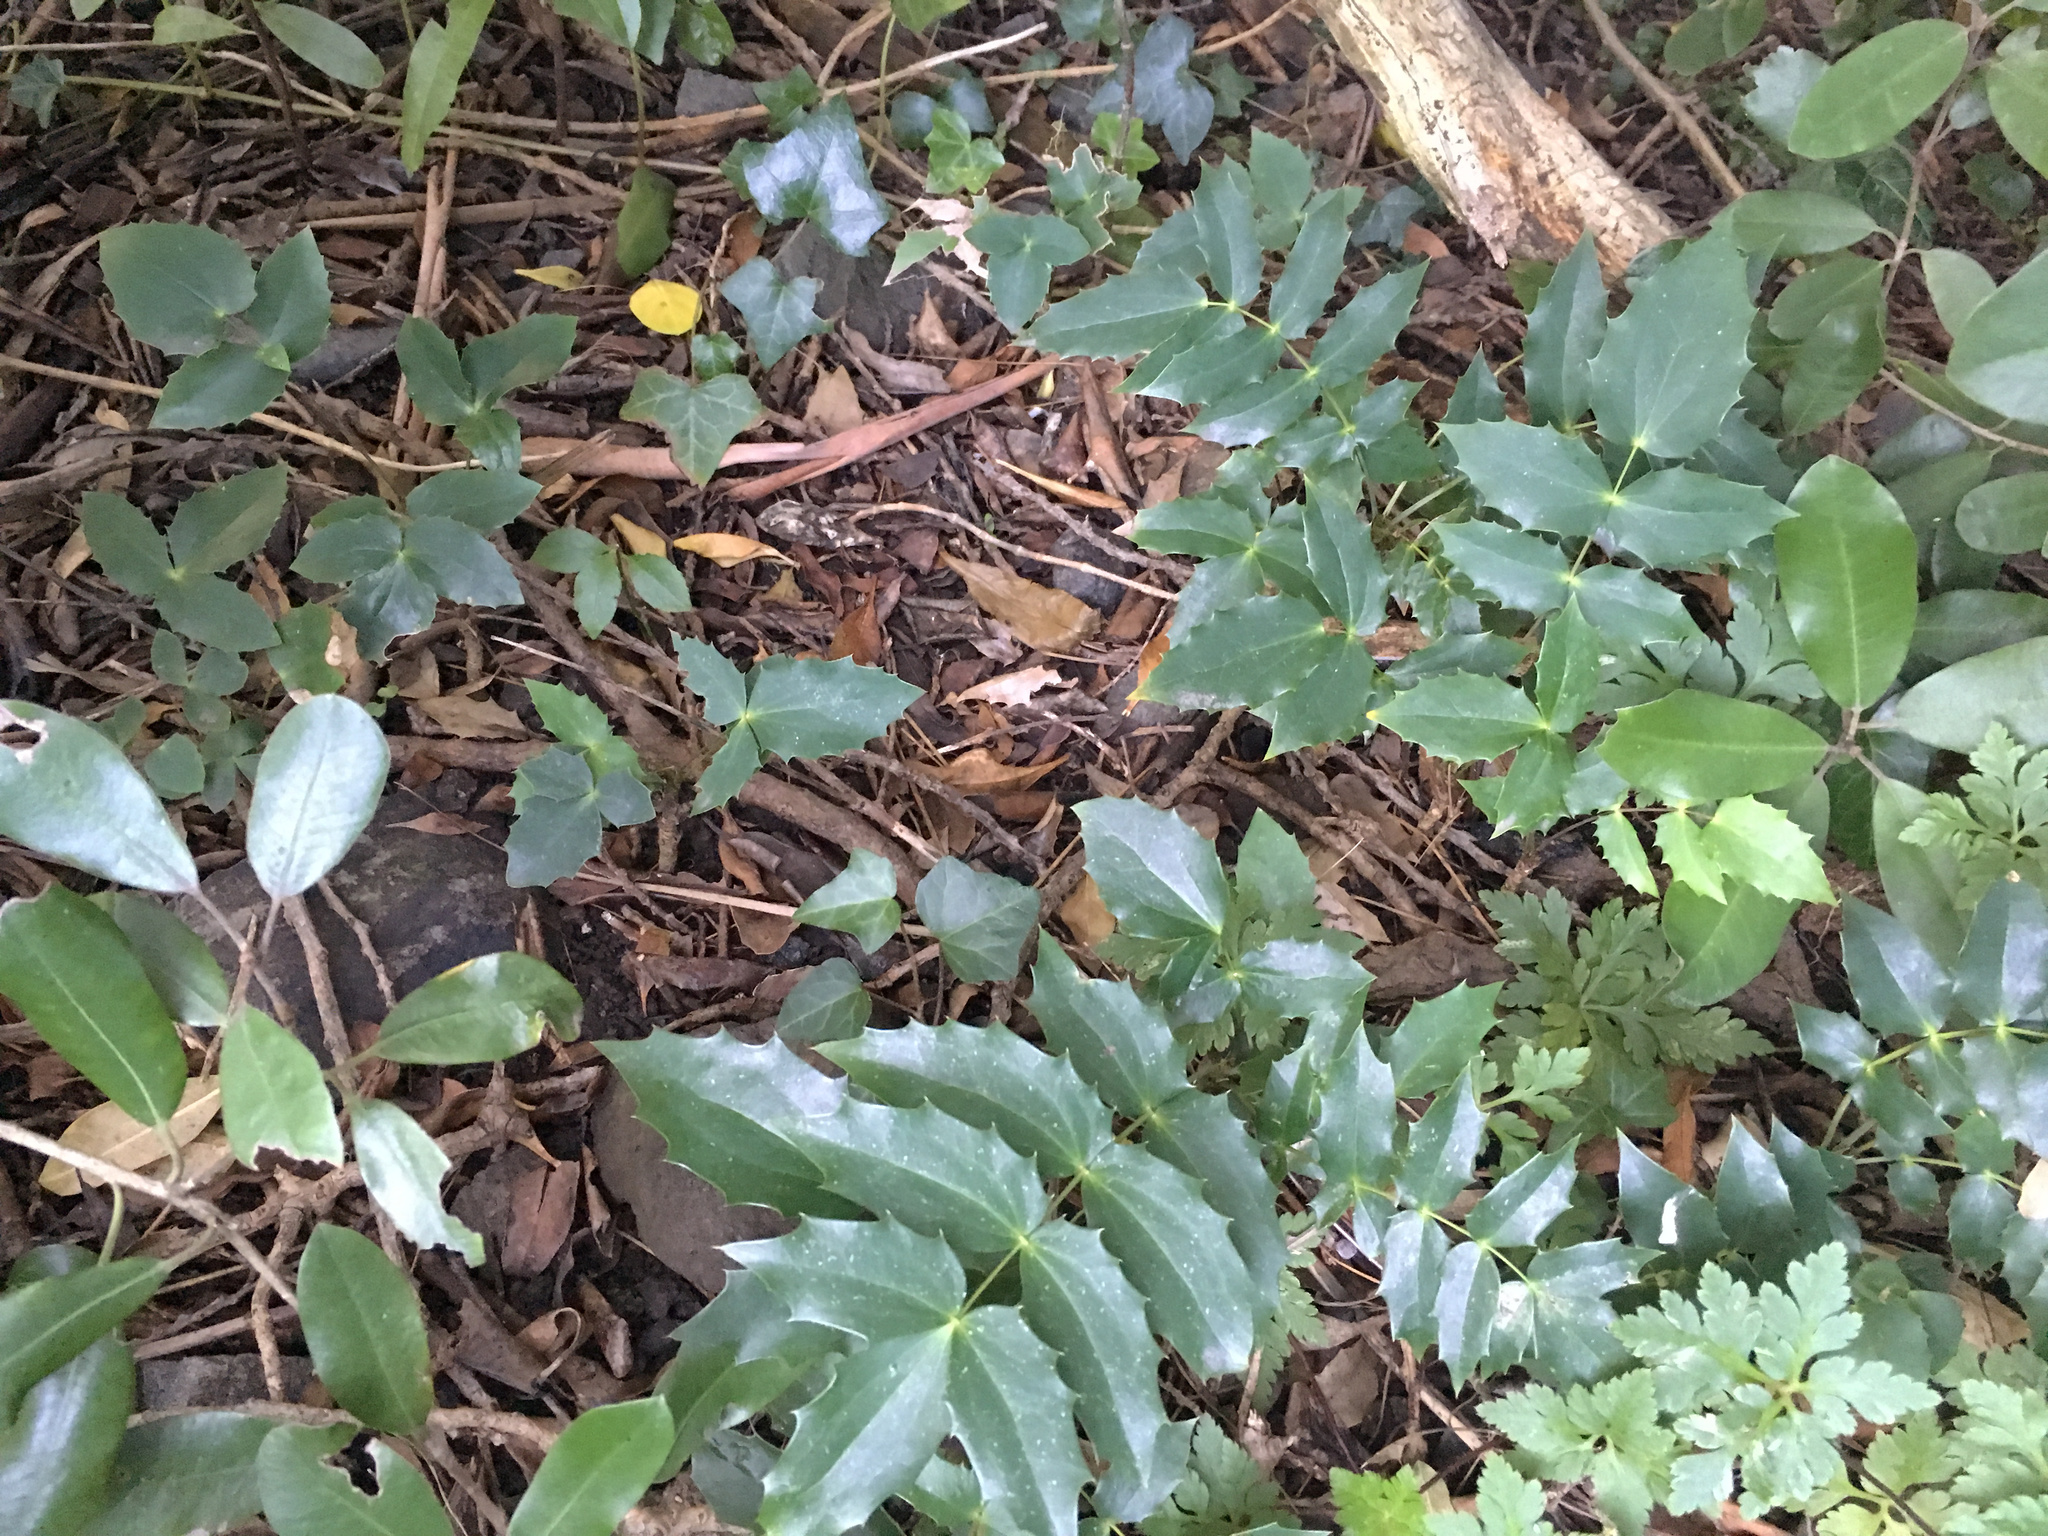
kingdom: Plantae
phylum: Tracheophyta
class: Magnoliopsida
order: Ranunculales
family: Berberidaceae
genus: Mahonia
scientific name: Mahonia oiwakensis
